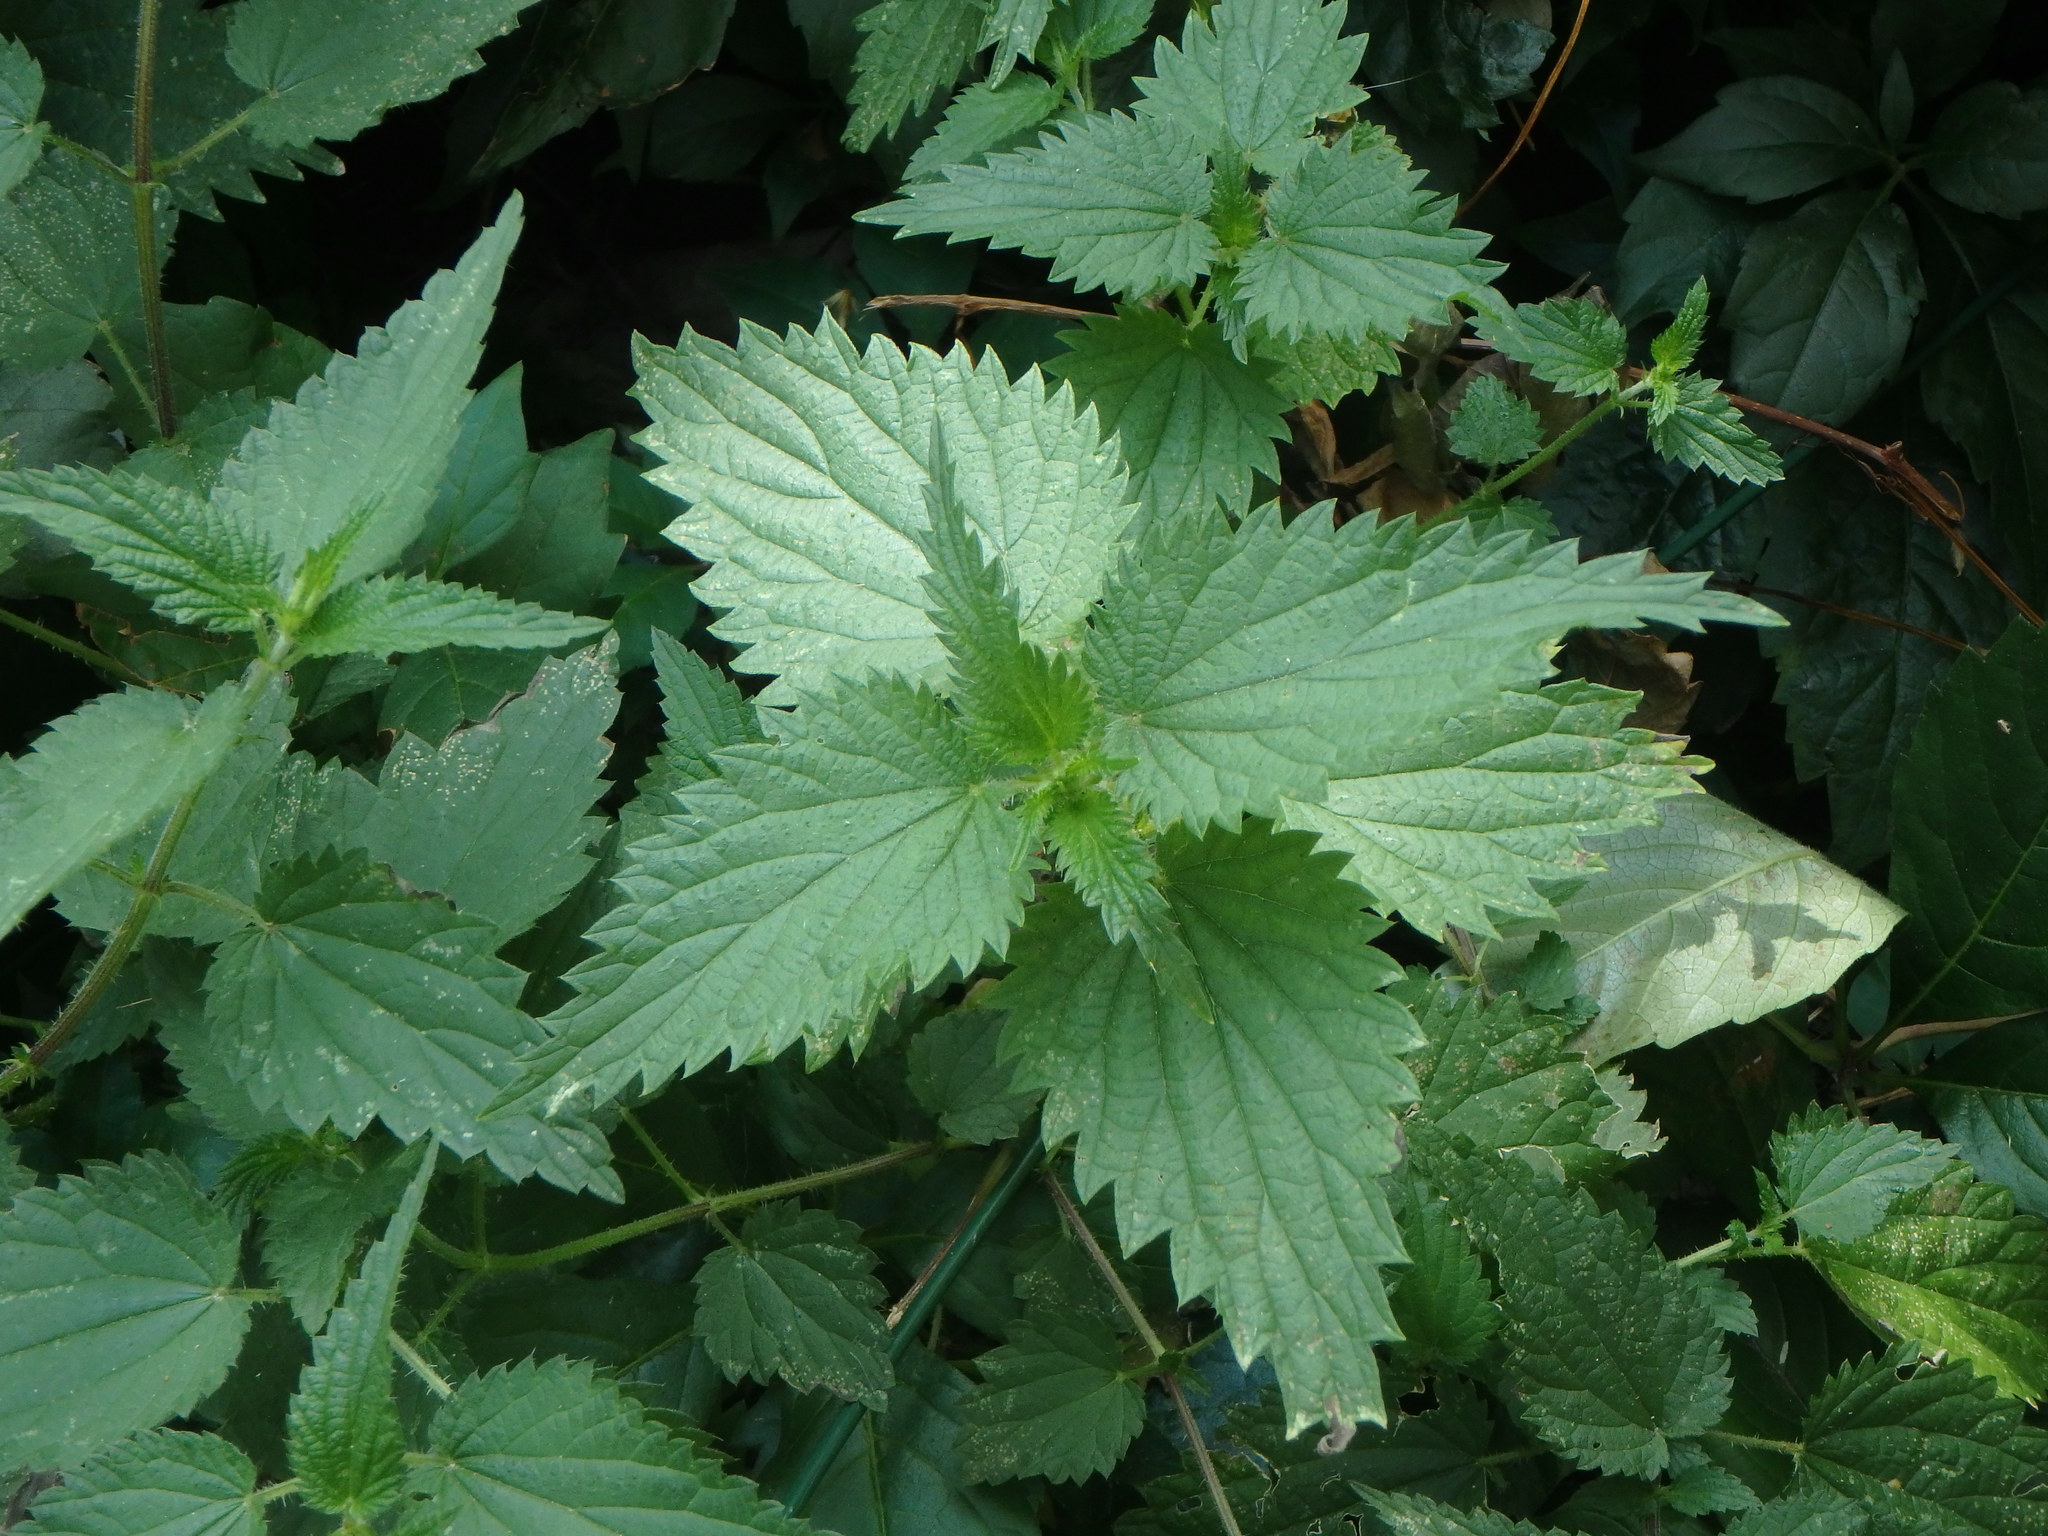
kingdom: Plantae
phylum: Tracheophyta
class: Magnoliopsida
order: Rosales
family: Urticaceae
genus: Urtica
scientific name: Urtica dioica
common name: Common nettle
